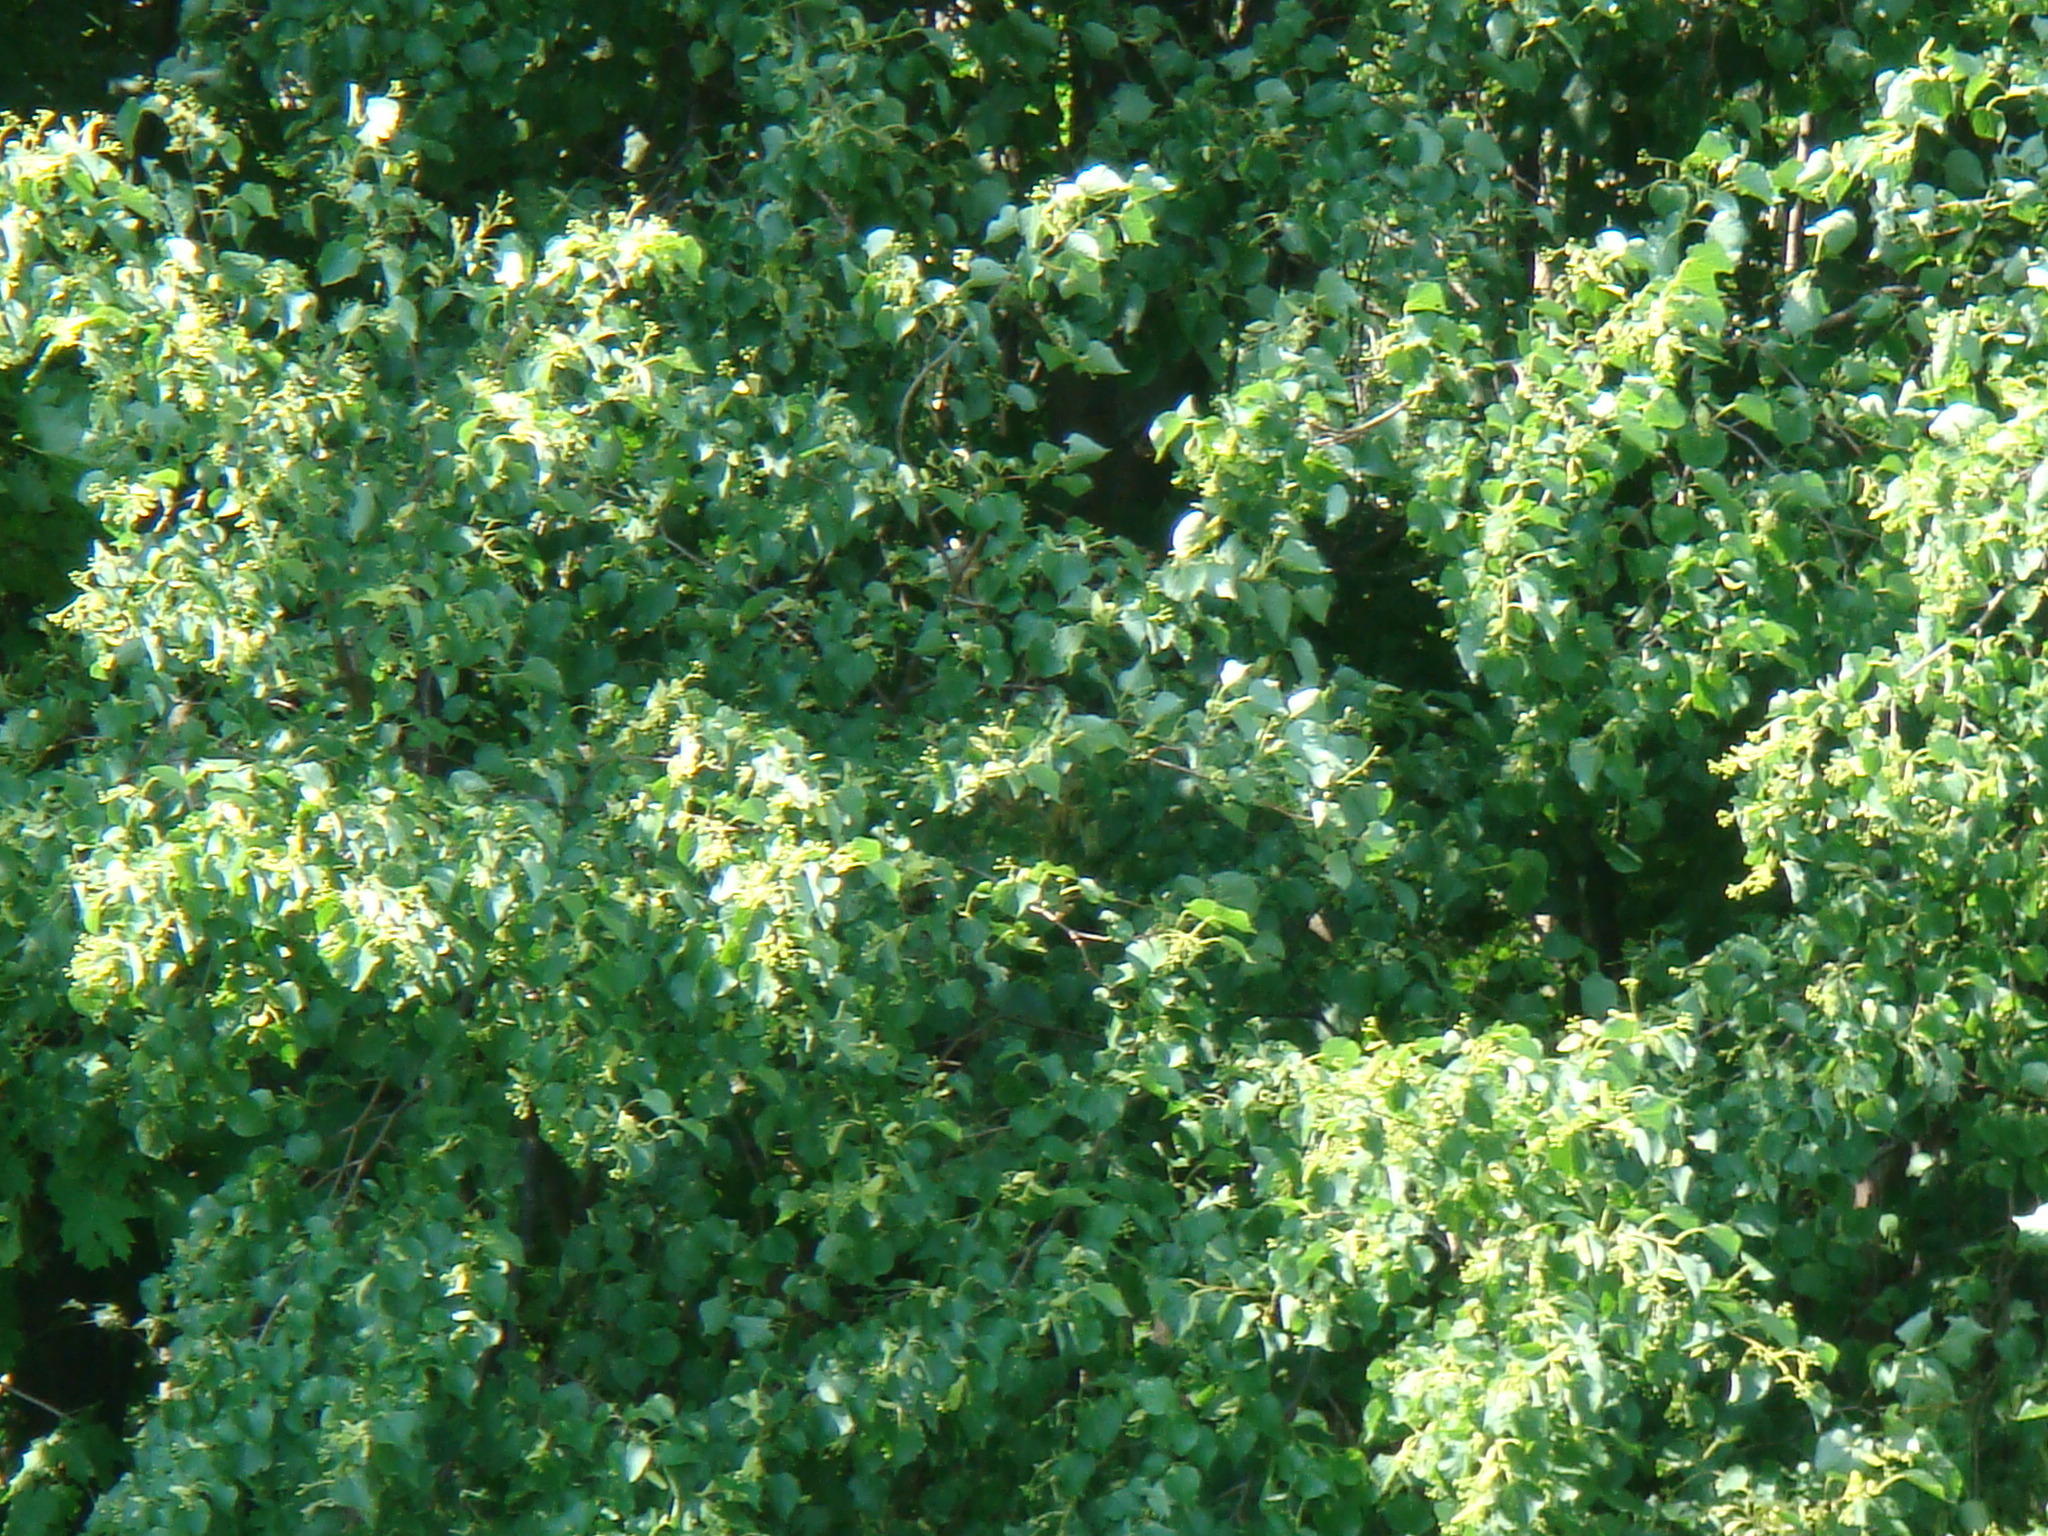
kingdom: Plantae
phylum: Tracheophyta
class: Magnoliopsida
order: Malvales
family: Malvaceae
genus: Tilia
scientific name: Tilia cordata
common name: Small-leaved lime
